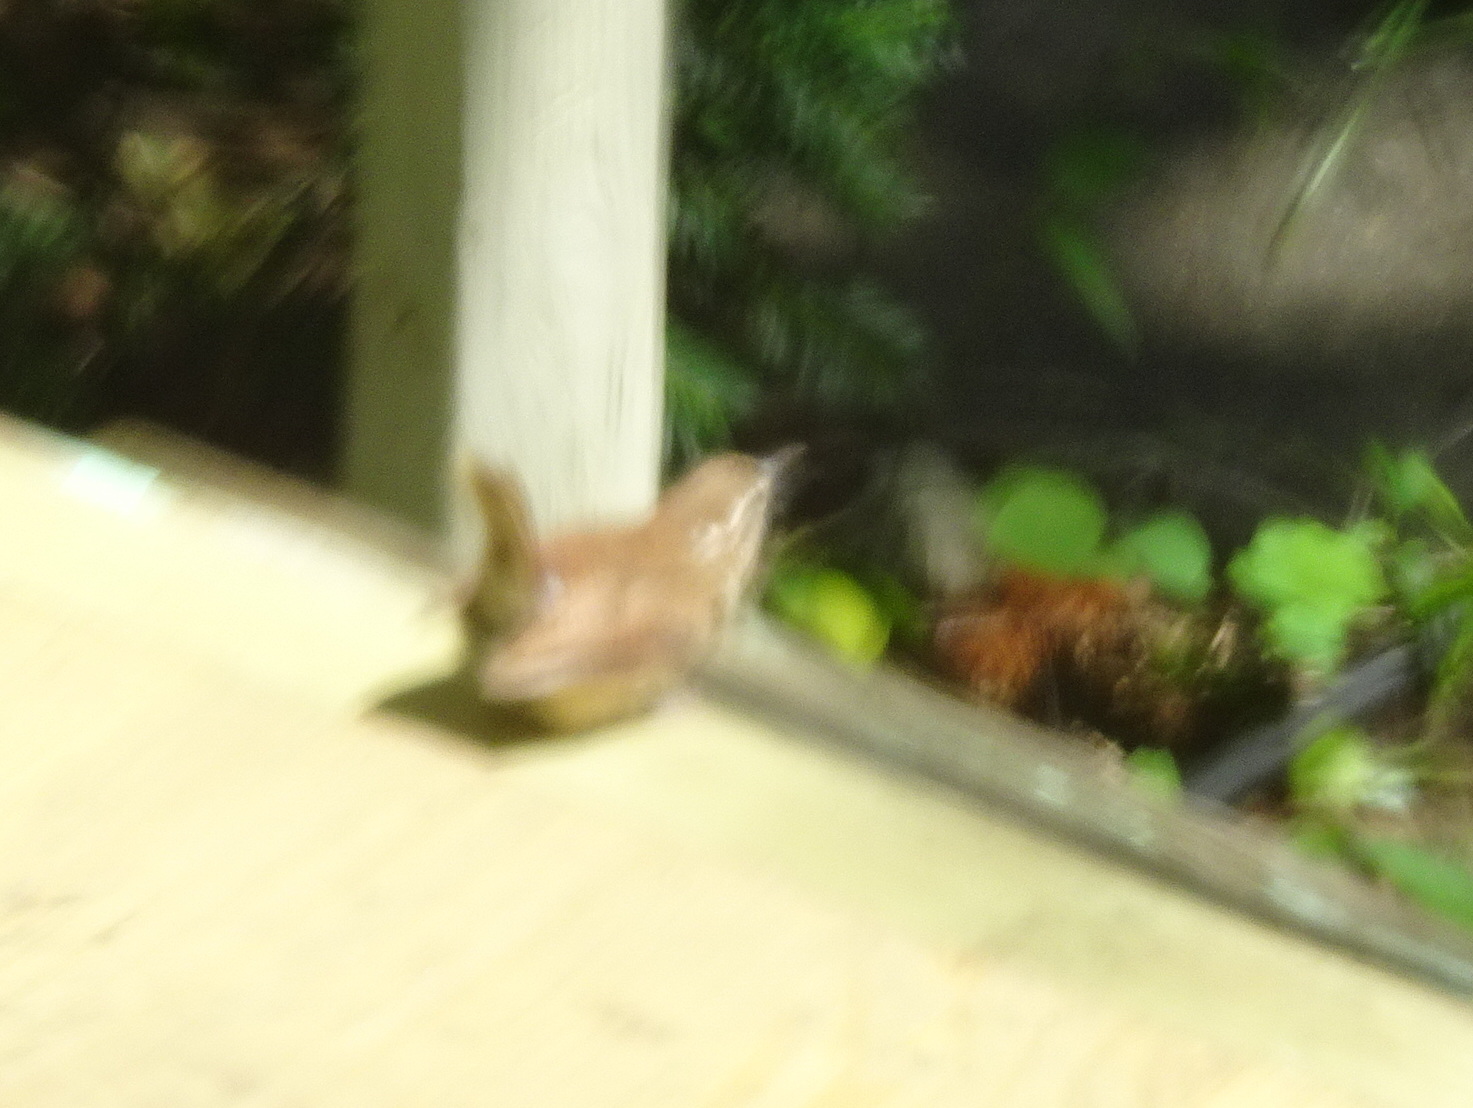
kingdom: Animalia
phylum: Chordata
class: Aves
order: Passeriformes
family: Troglodytidae
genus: Thryothorus
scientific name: Thryothorus ludovicianus
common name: Carolina wren
